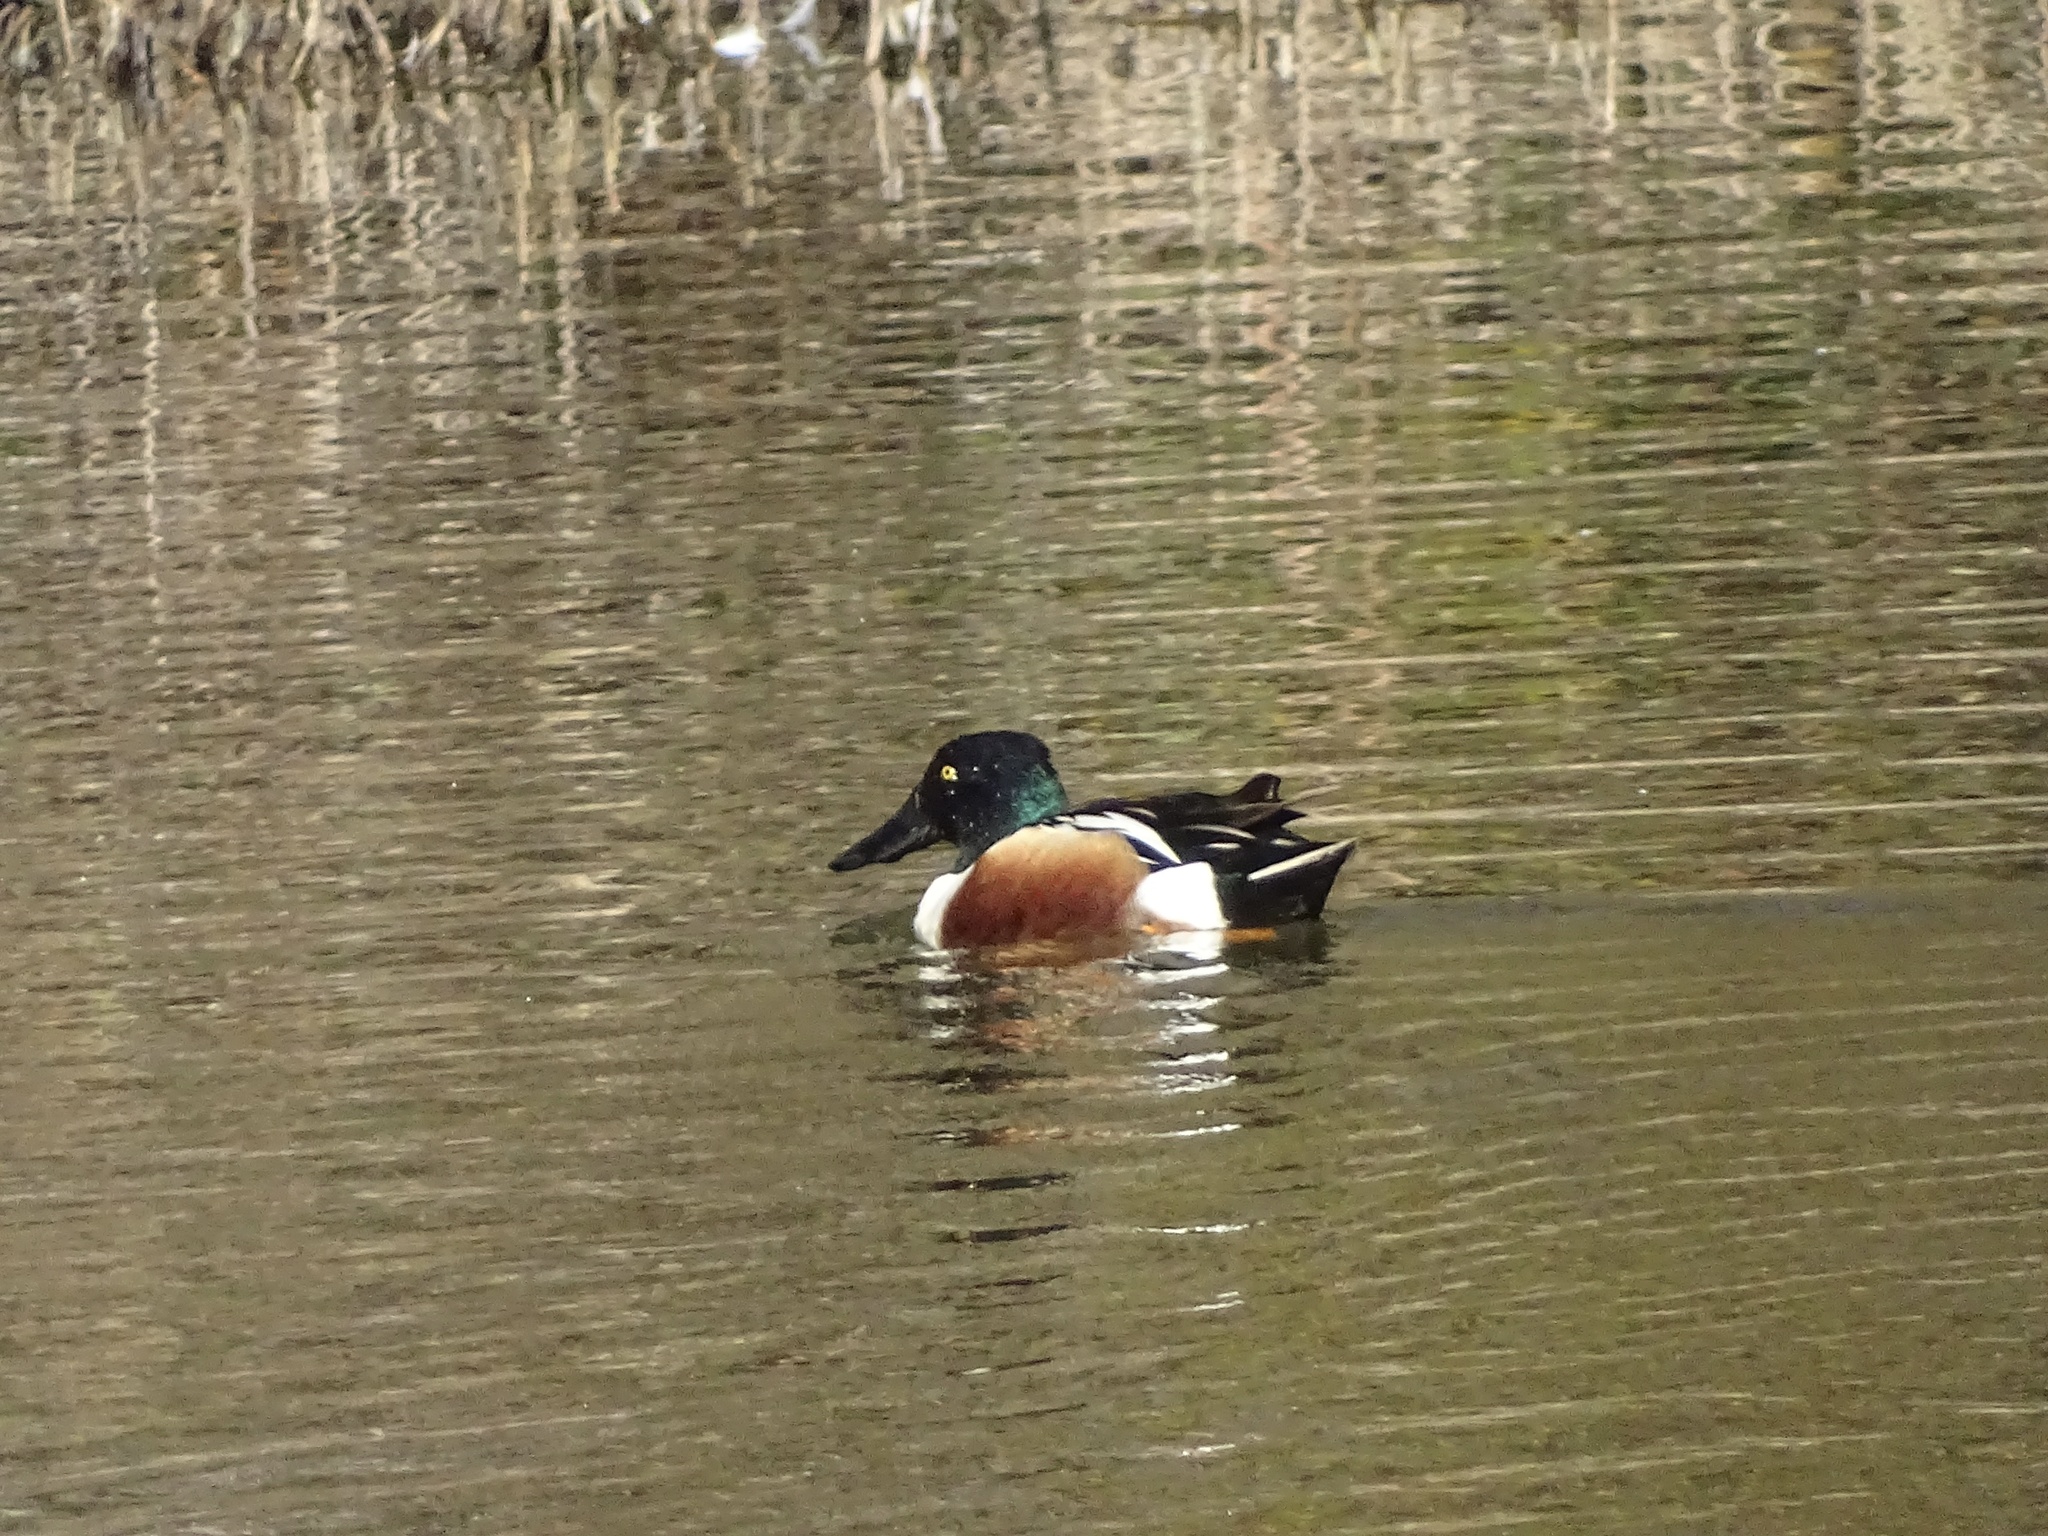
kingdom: Animalia
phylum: Chordata
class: Aves
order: Anseriformes
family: Anatidae
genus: Spatula
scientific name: Spatula clypeata
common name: Northern shoveler
